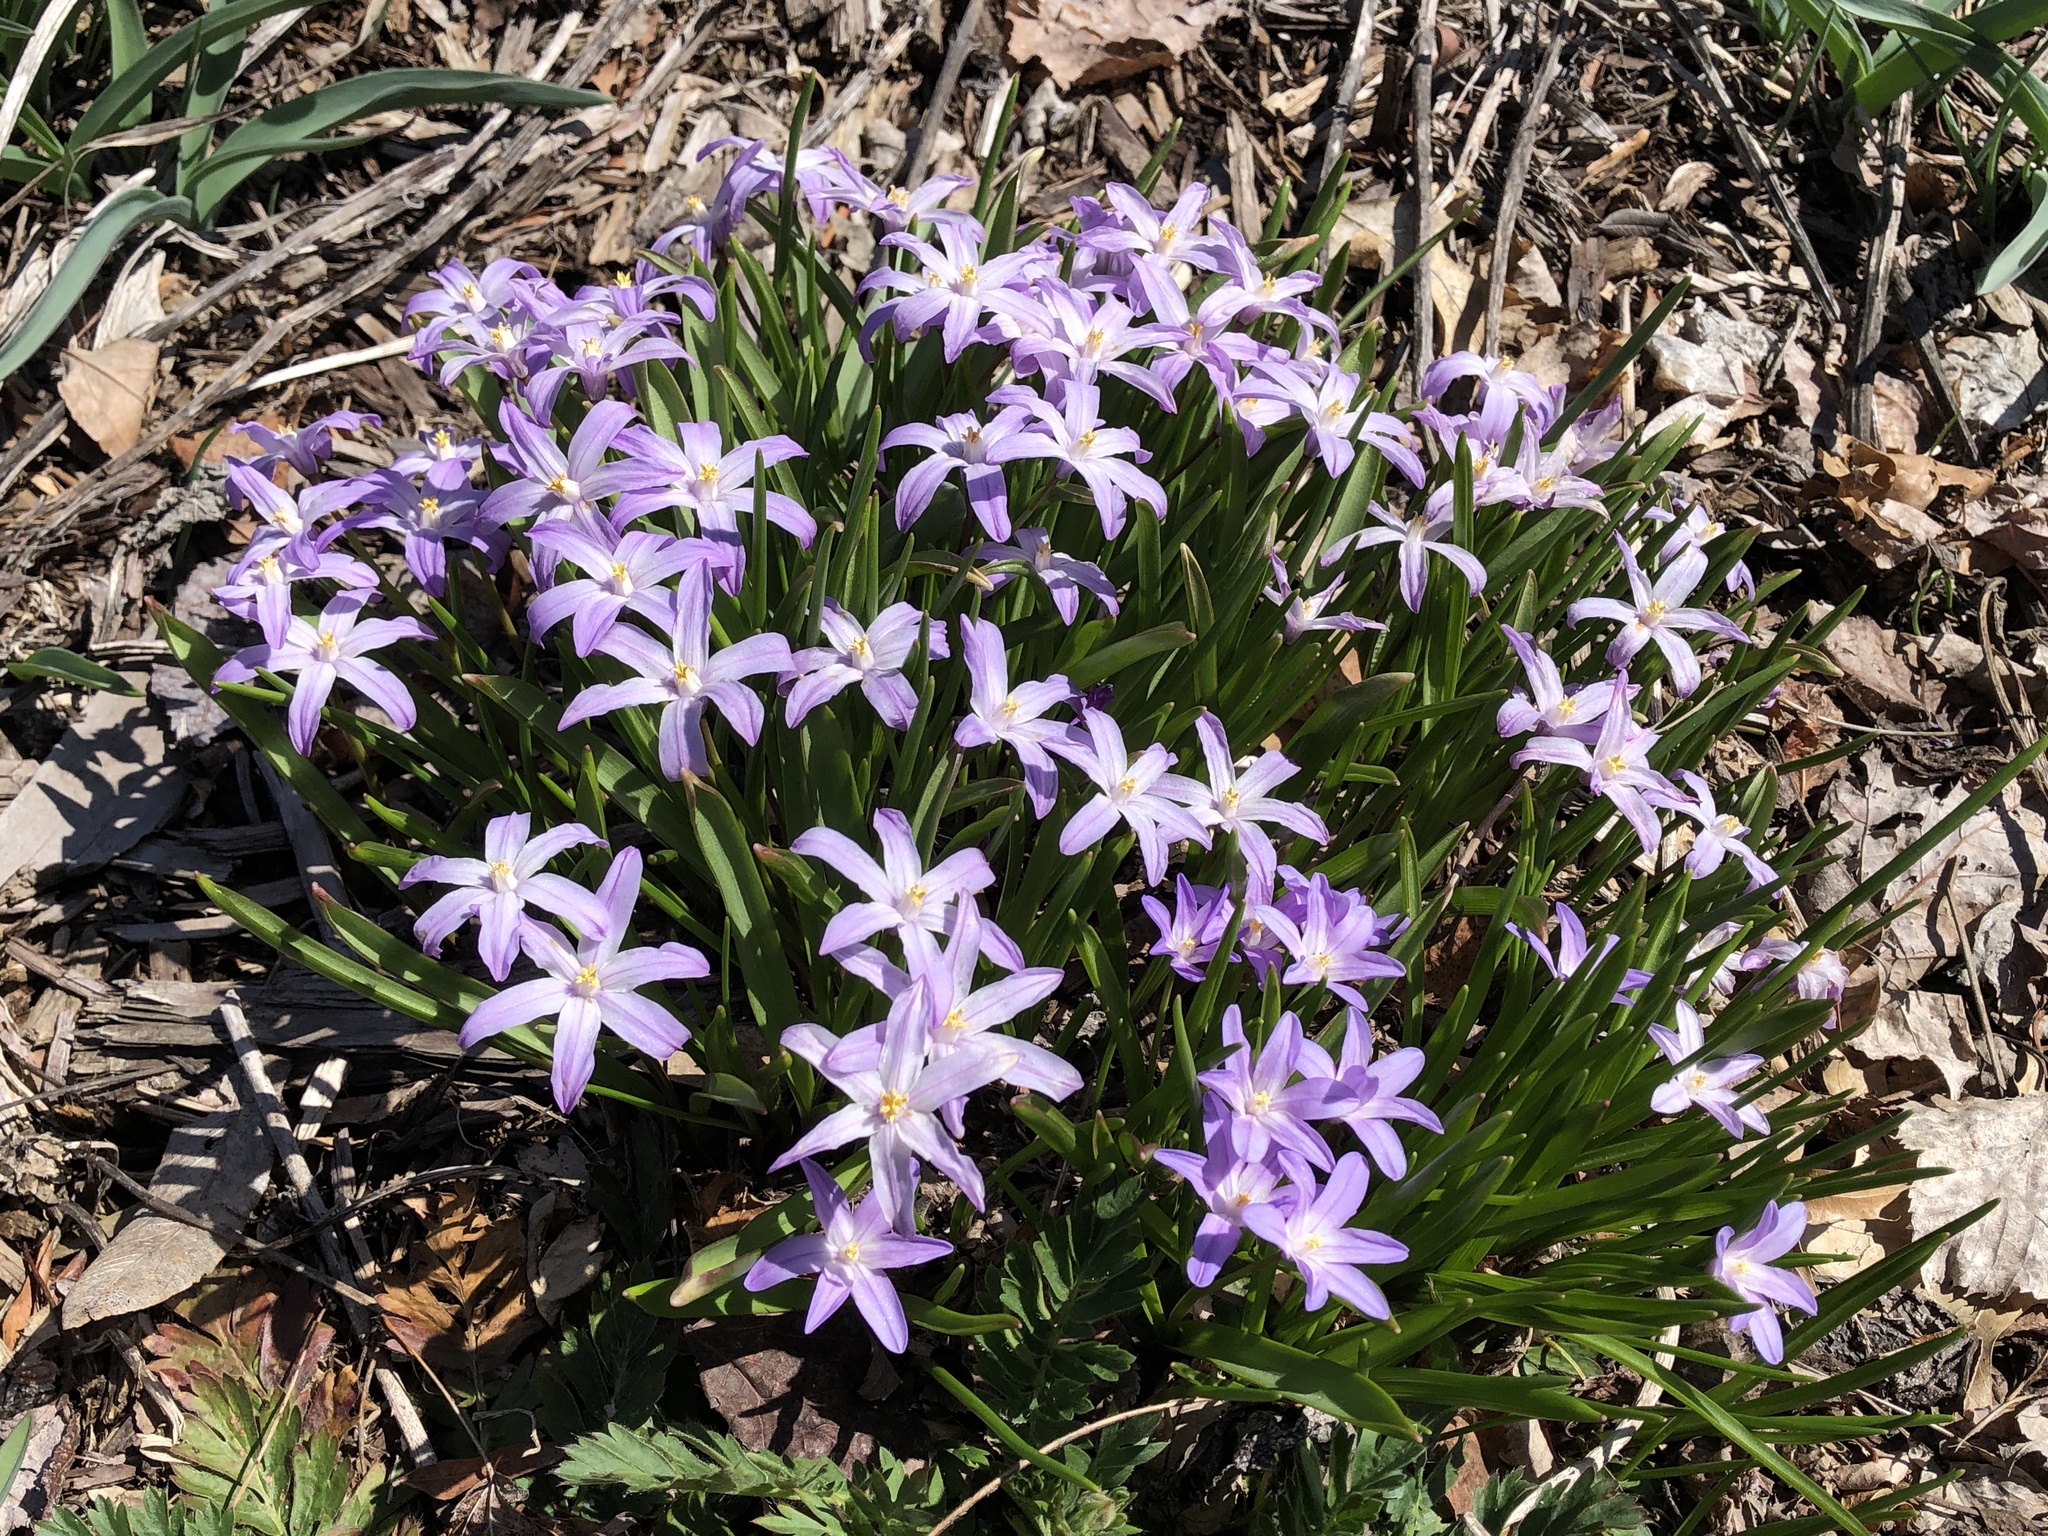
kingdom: Plantae
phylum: Tracheophyta
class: Liliopsida
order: Asparagales
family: Asparagaceae
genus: Scilla
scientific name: Scilla luciliae
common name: Boissier's glory-of-the-snow
